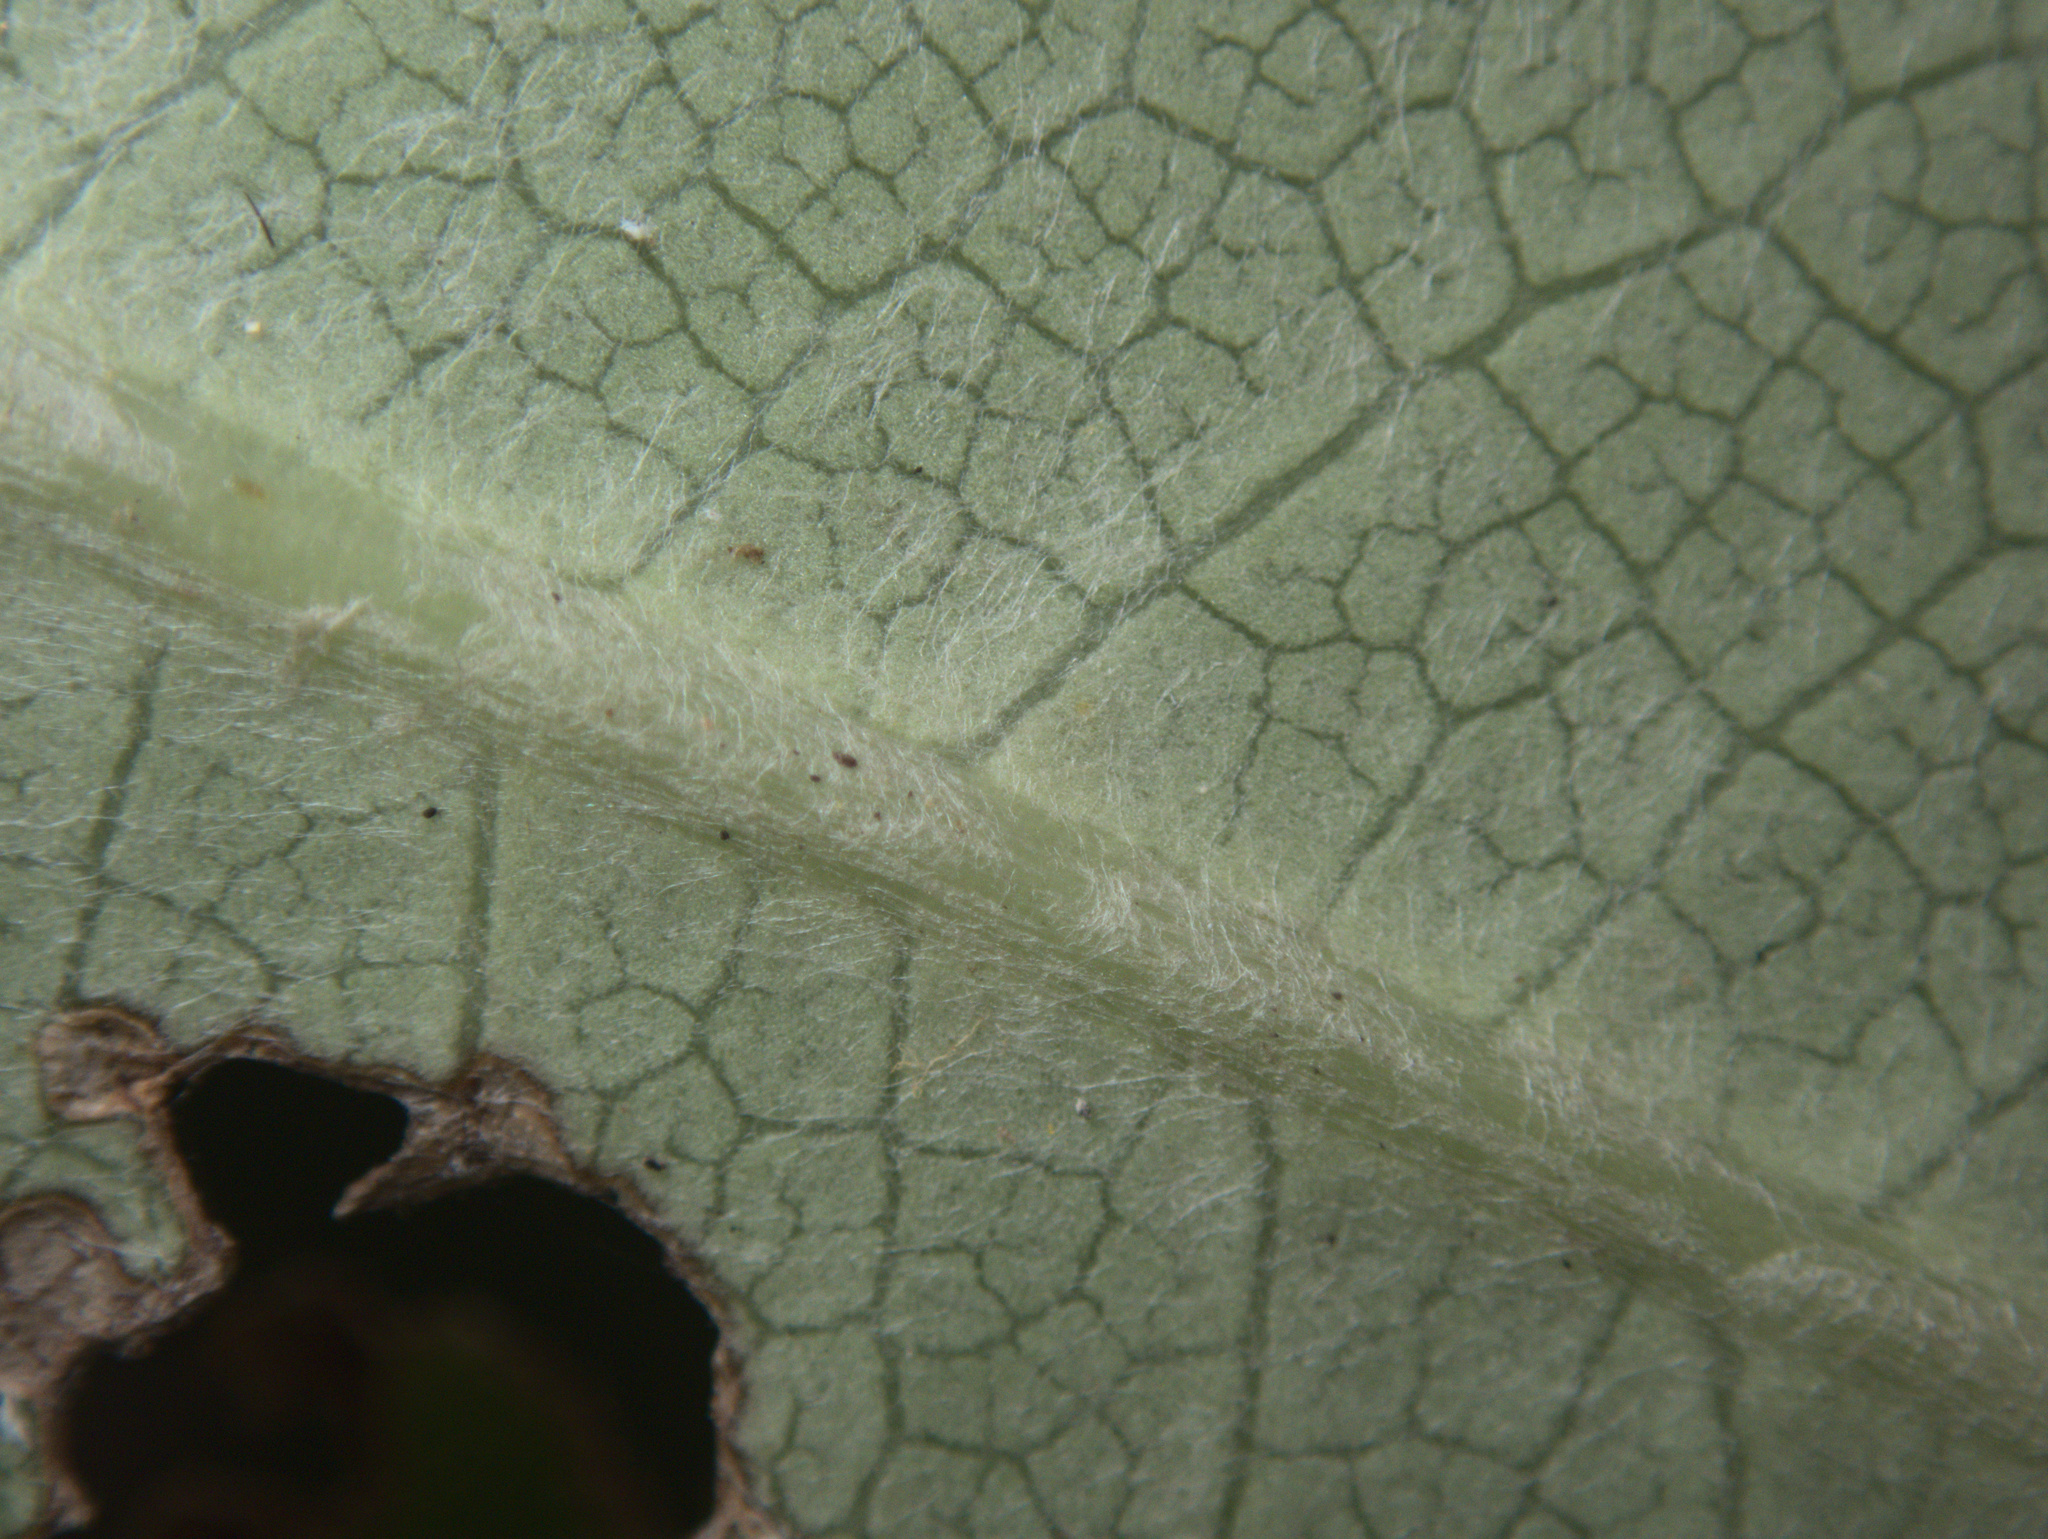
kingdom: Plantae
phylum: Tracheophyta
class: Magnoliopsida
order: Apiales
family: Pittosporaceae
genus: Pittosporum
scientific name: Pittosporum huttonianum
